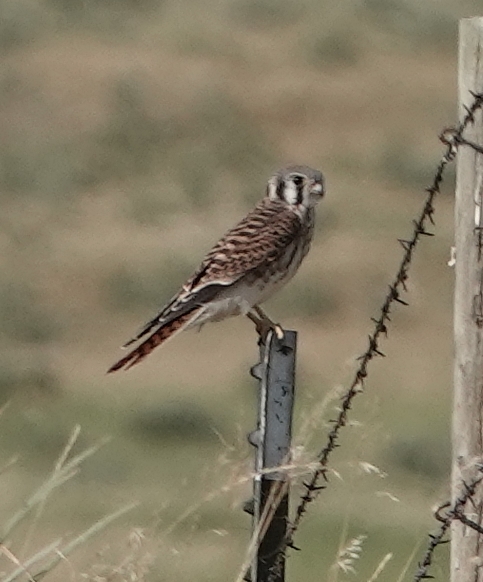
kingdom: Animalia
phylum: Chordata
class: Aves
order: Falconiformes
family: Falconidae
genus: Falco
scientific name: Falco sparverius
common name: American kestrel
